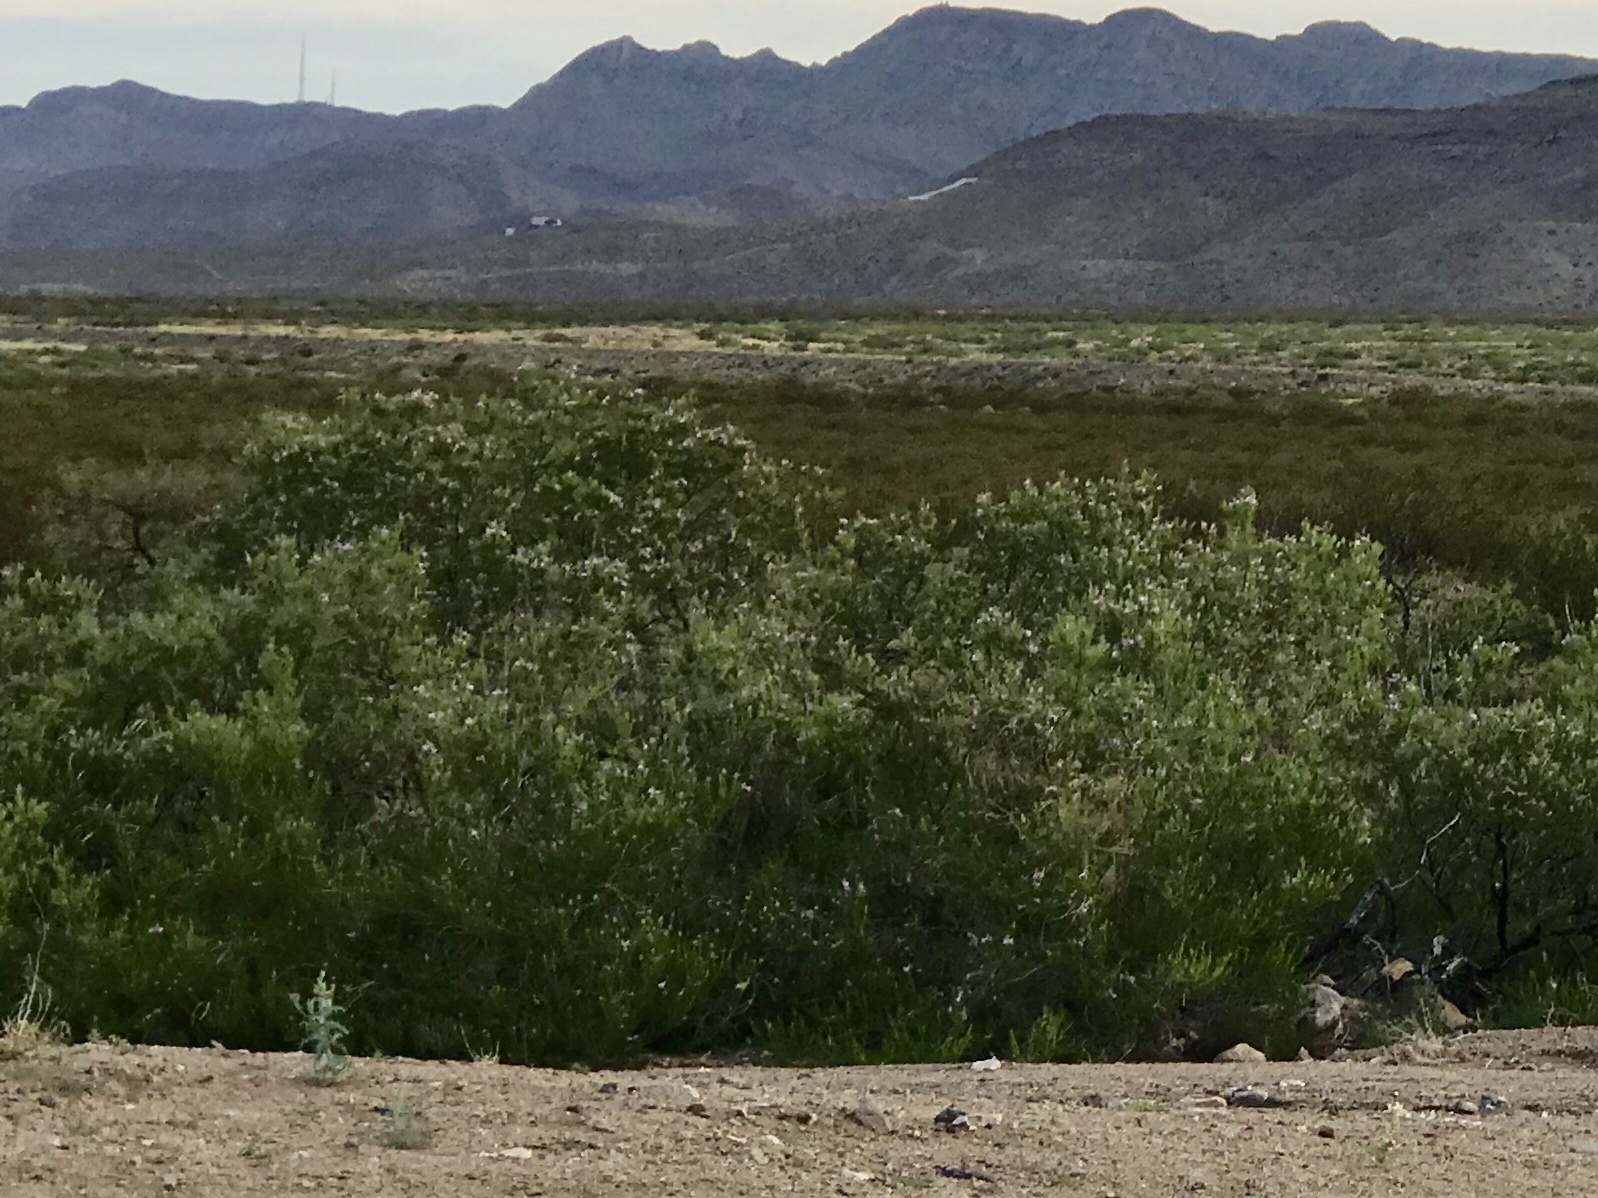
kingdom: Plantae
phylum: Tracheophyta
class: Magnoliopsida
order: Zygophyllales
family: Zygophyllaceae
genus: Larrea
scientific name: Larrea tridentata
